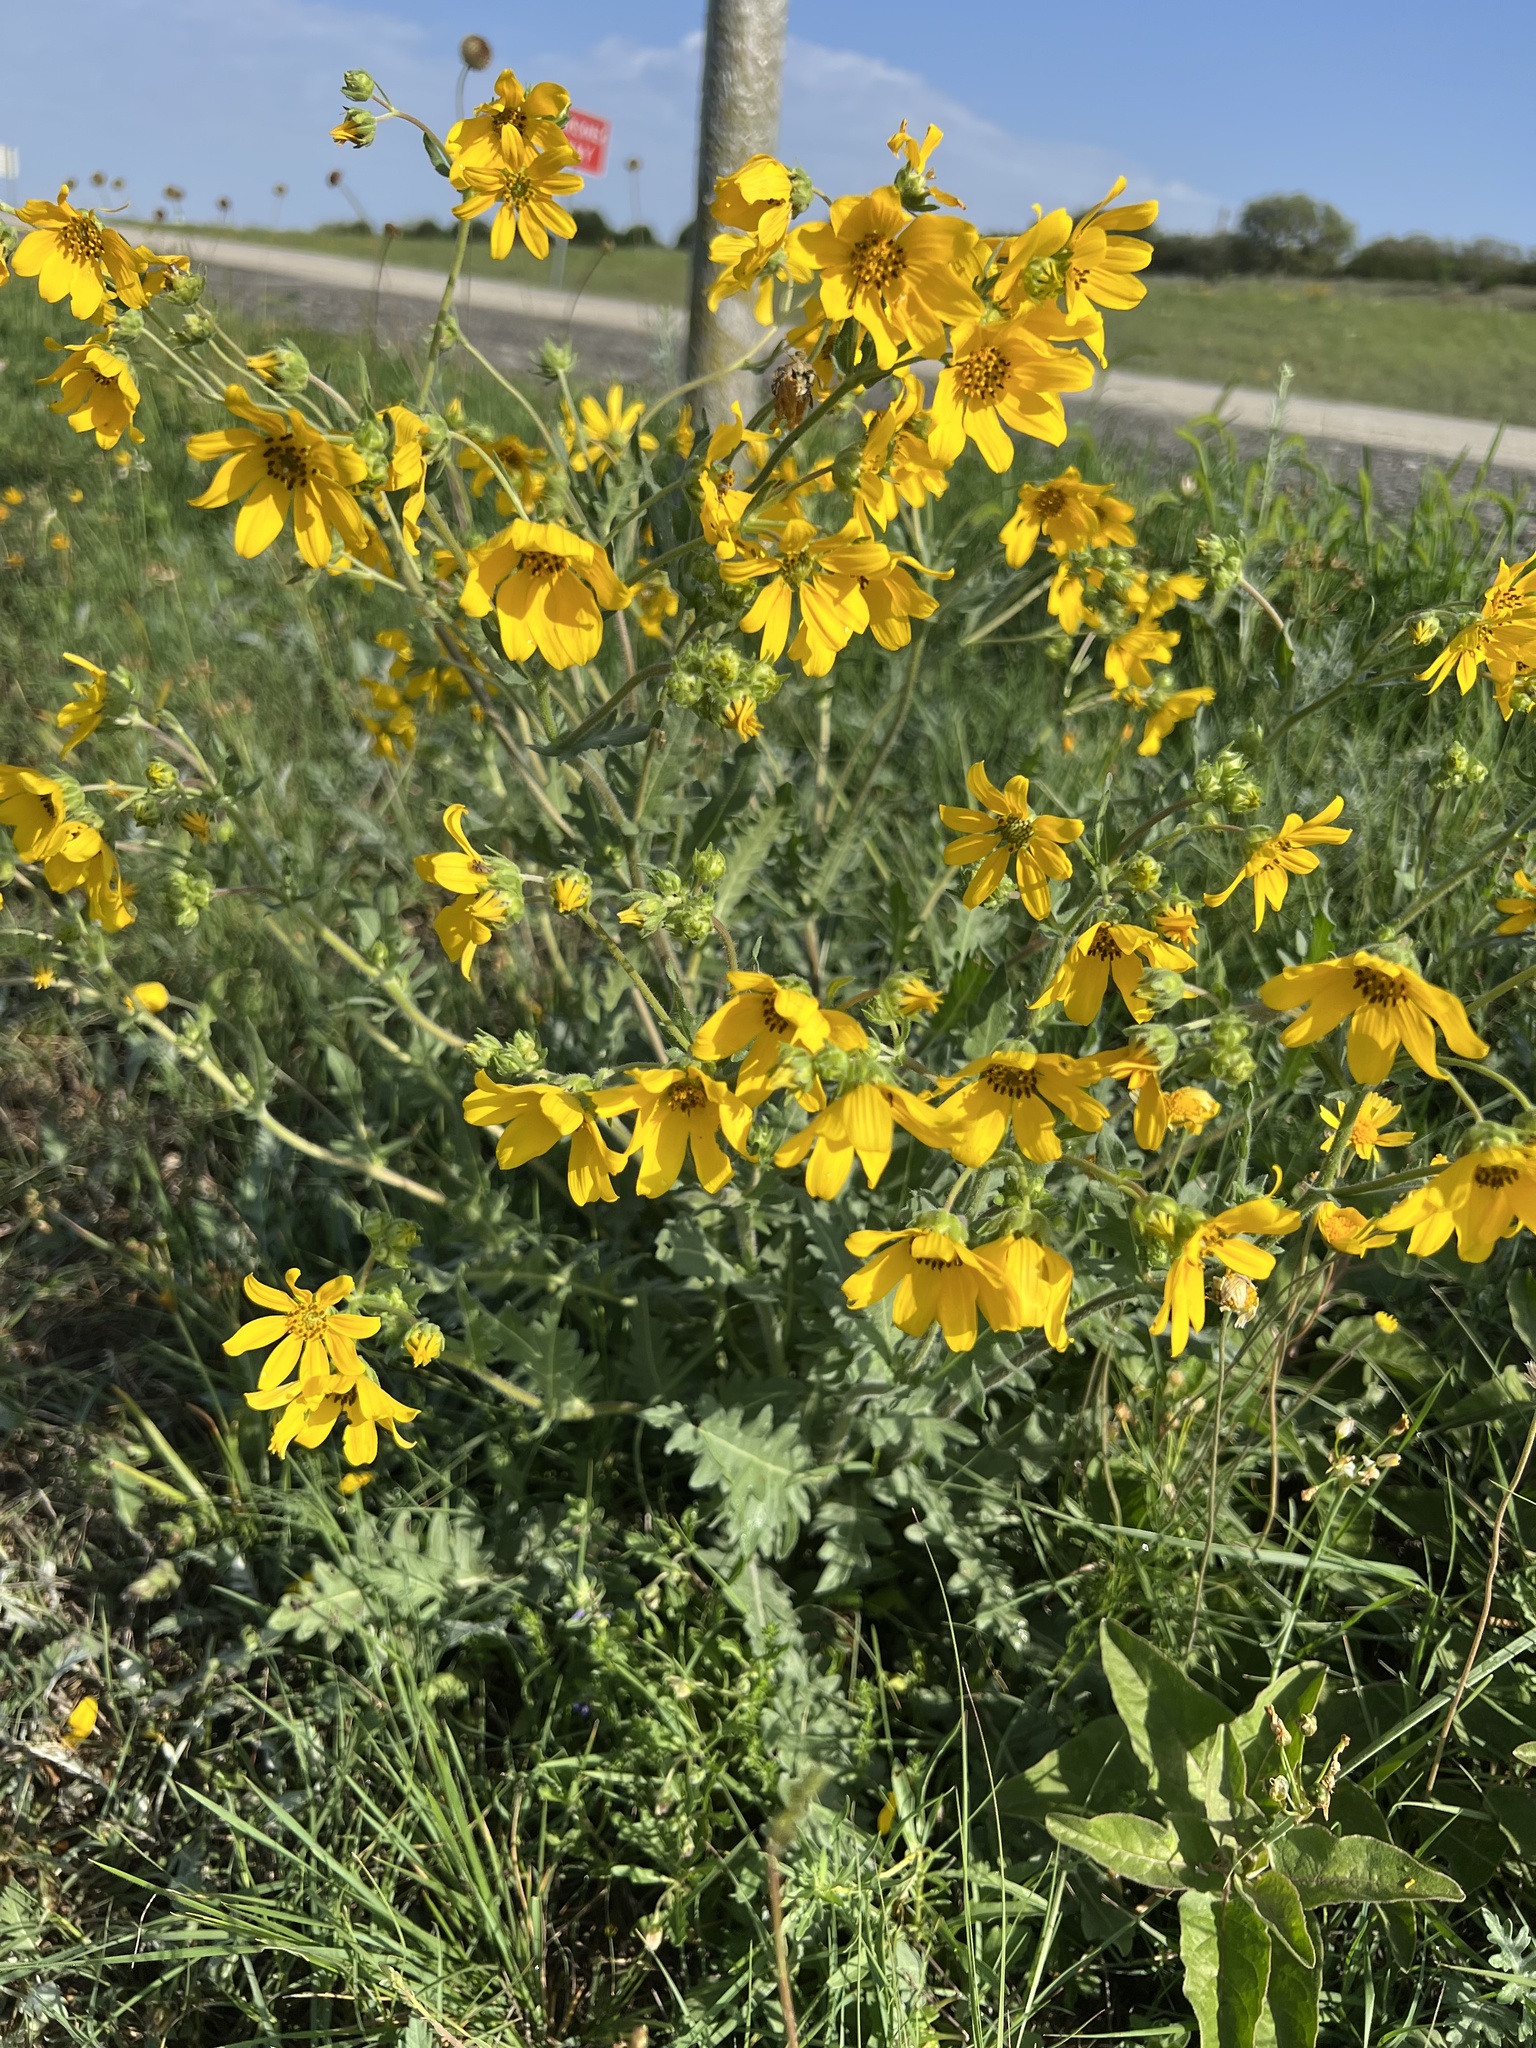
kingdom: Plantae
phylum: Tracheophyta
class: Magnoliopsida
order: Asterales
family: Asteraceae
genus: Engelmannia
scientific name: Engelmannia peristenia
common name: Engelmann's daisy
